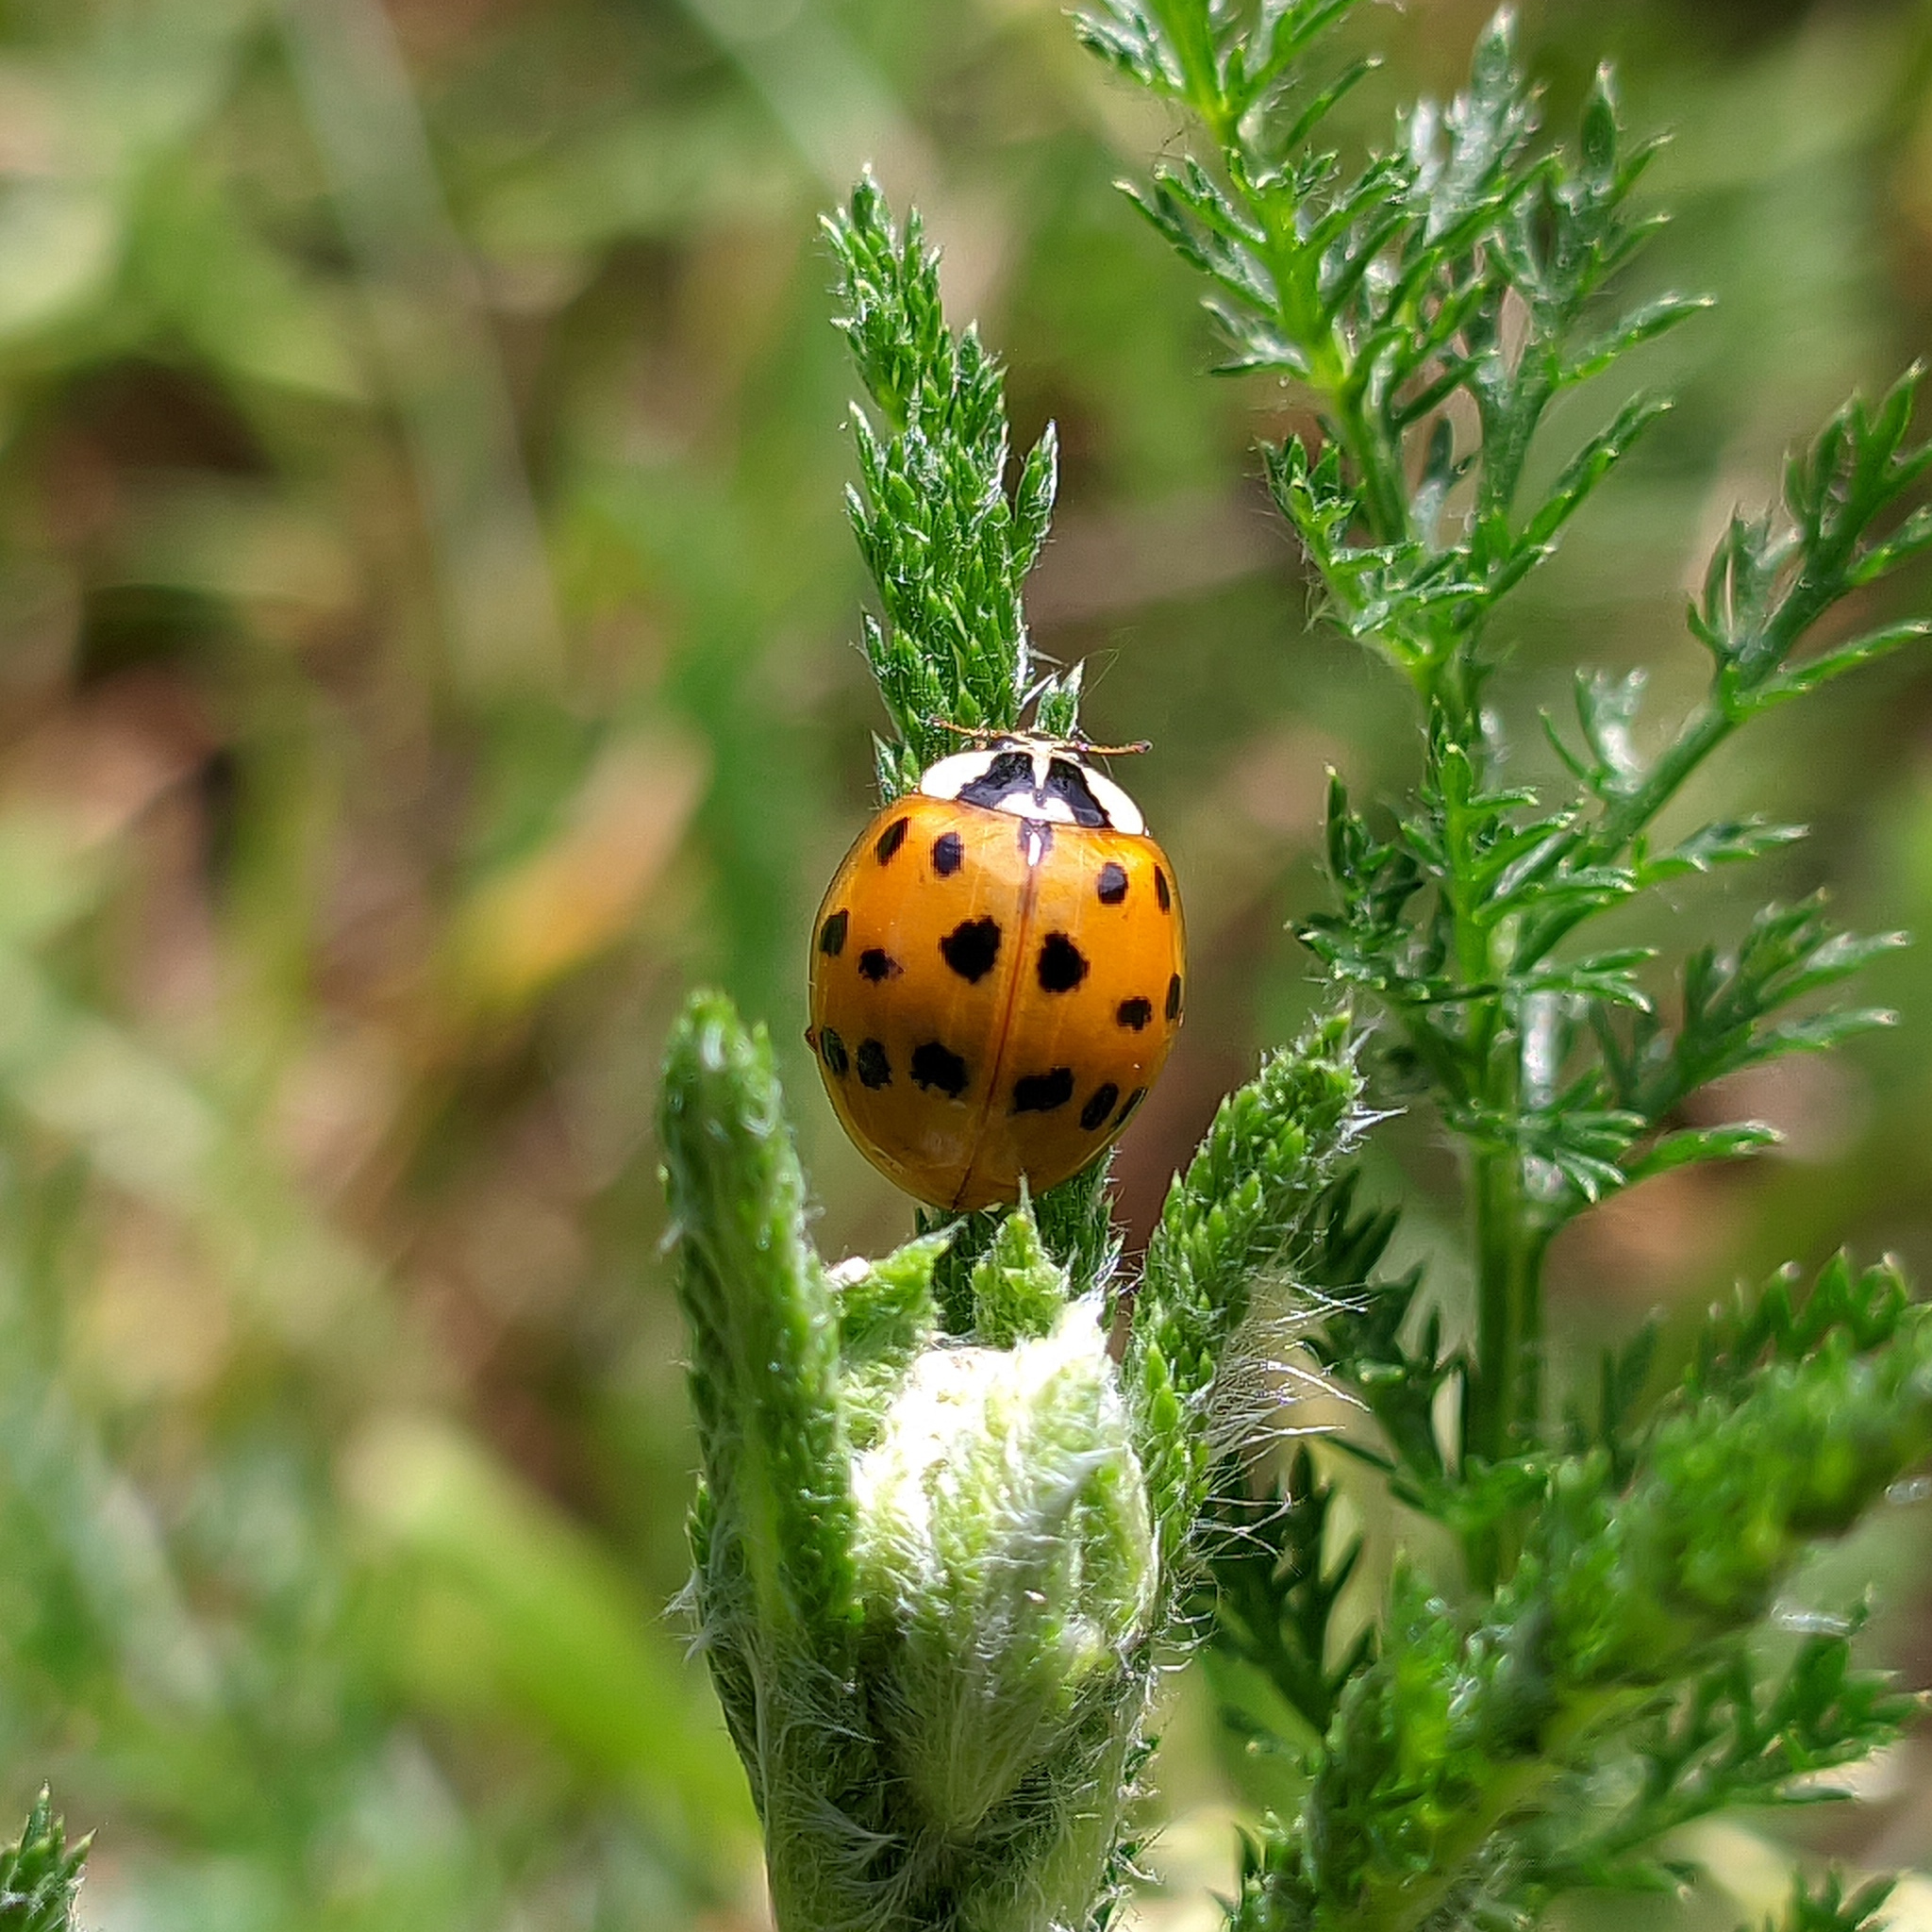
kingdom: Animalia
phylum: Arthropoda
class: Insecta
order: Coleoptera
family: Coccinellidae
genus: Harmonia
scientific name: Harmonia axyridis
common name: Harlequin ladybird
